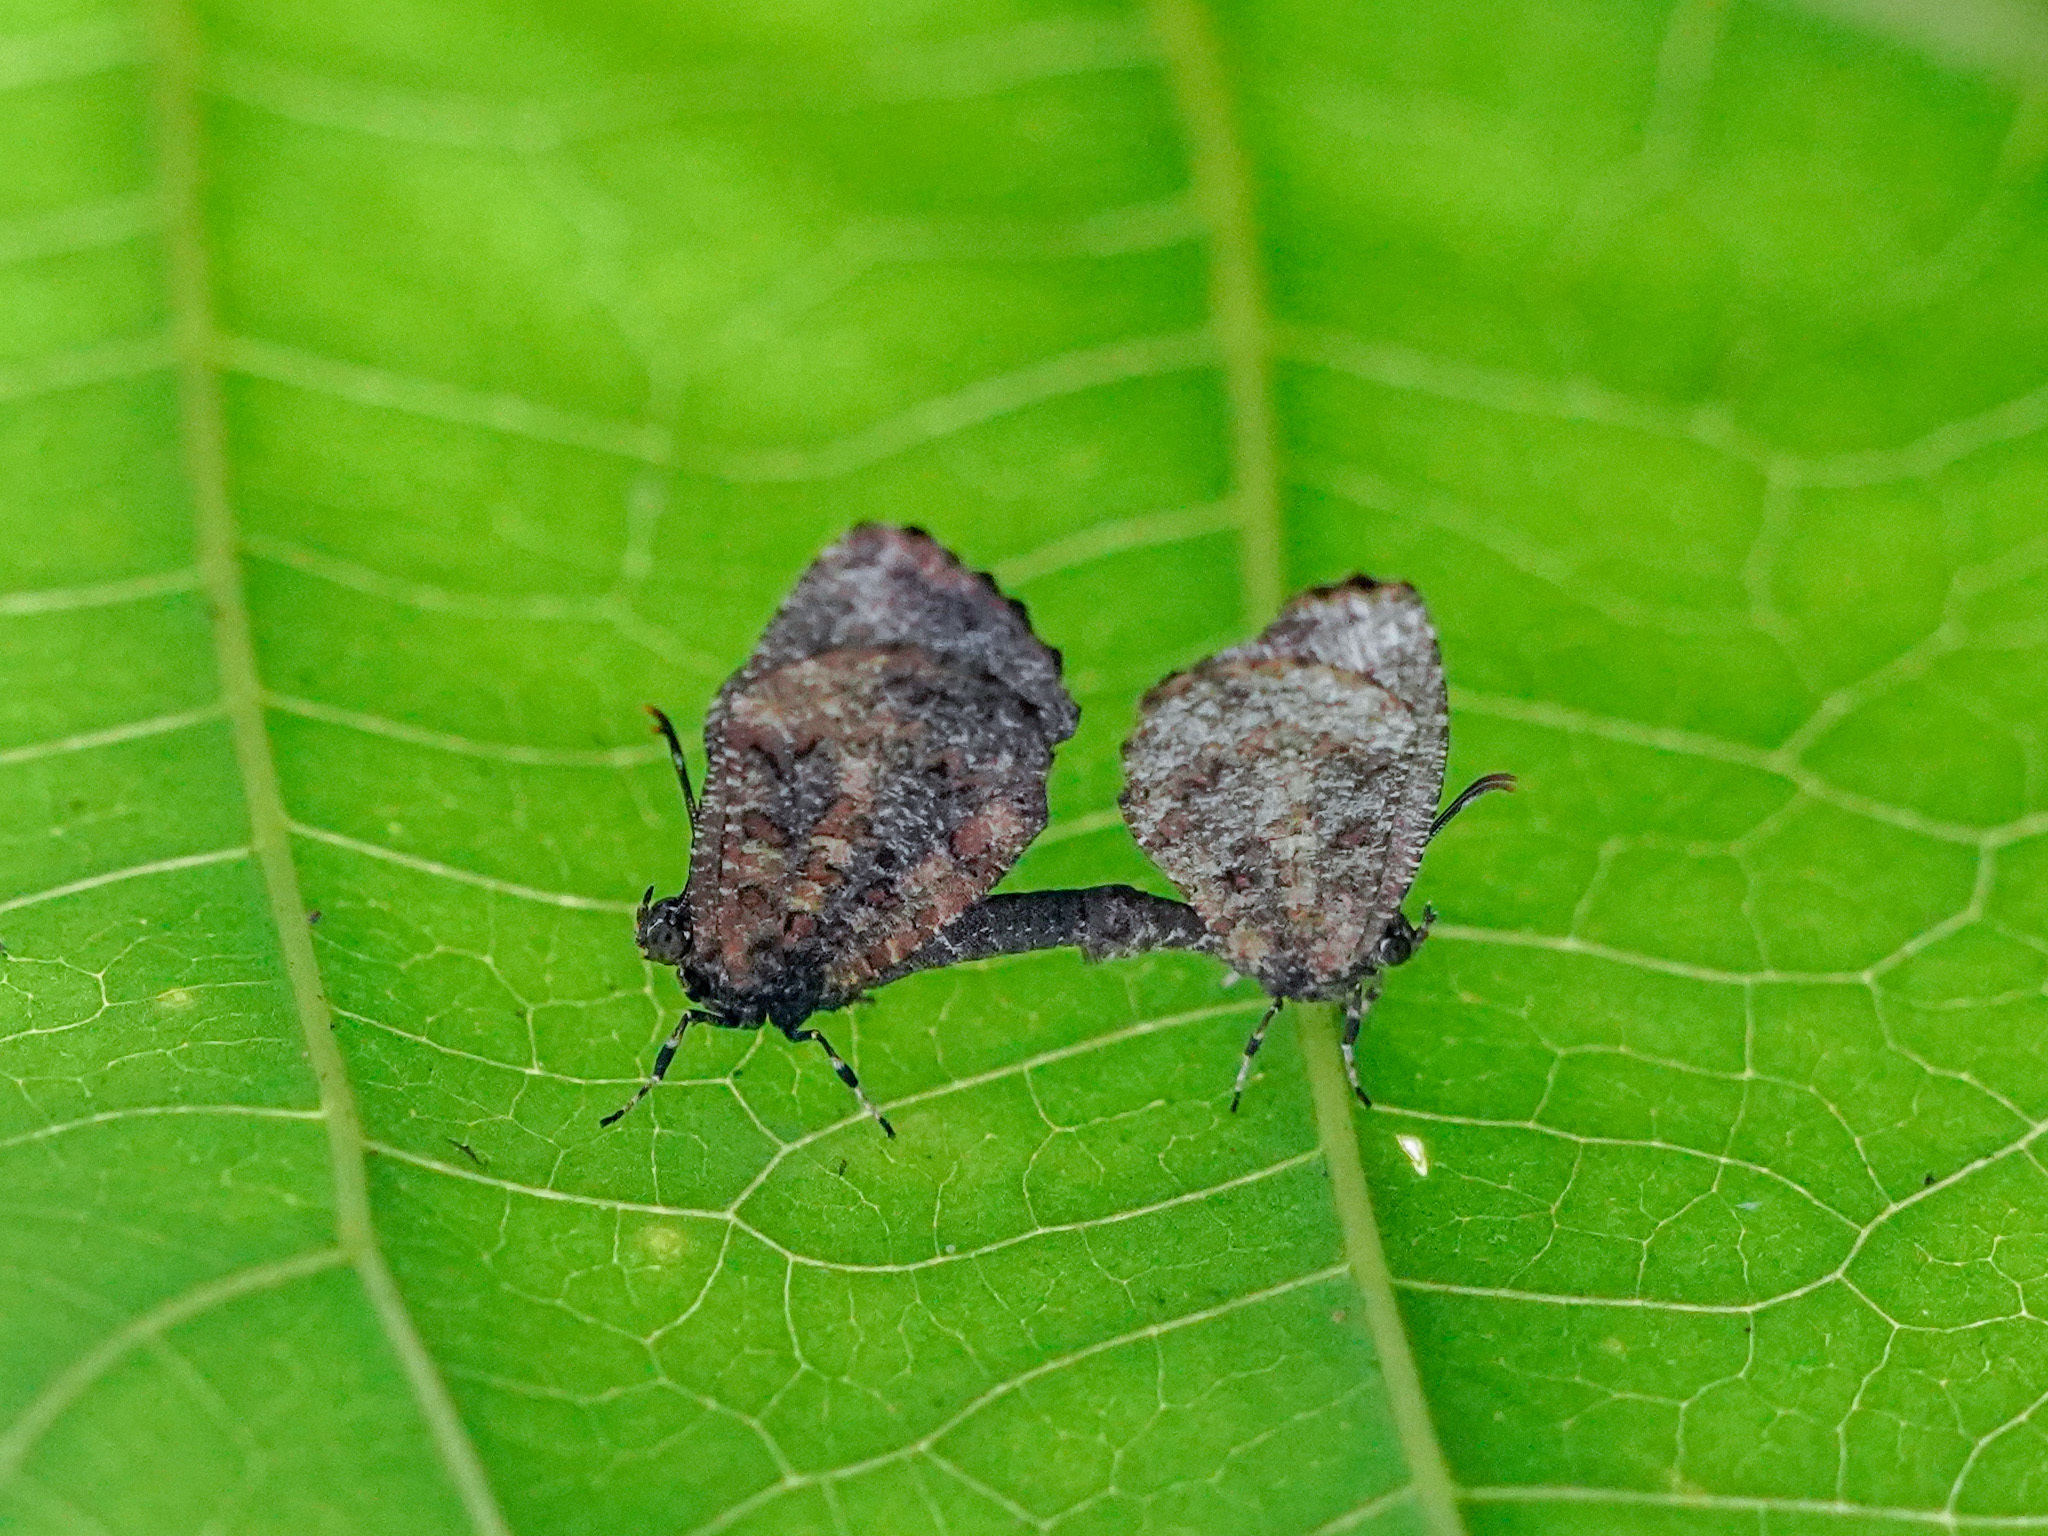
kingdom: Animalia
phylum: Arthropoda
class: Insecta
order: Lepidoptera
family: Lycaenidae
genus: Logania
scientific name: Logania marmorata
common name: Pale mottle
